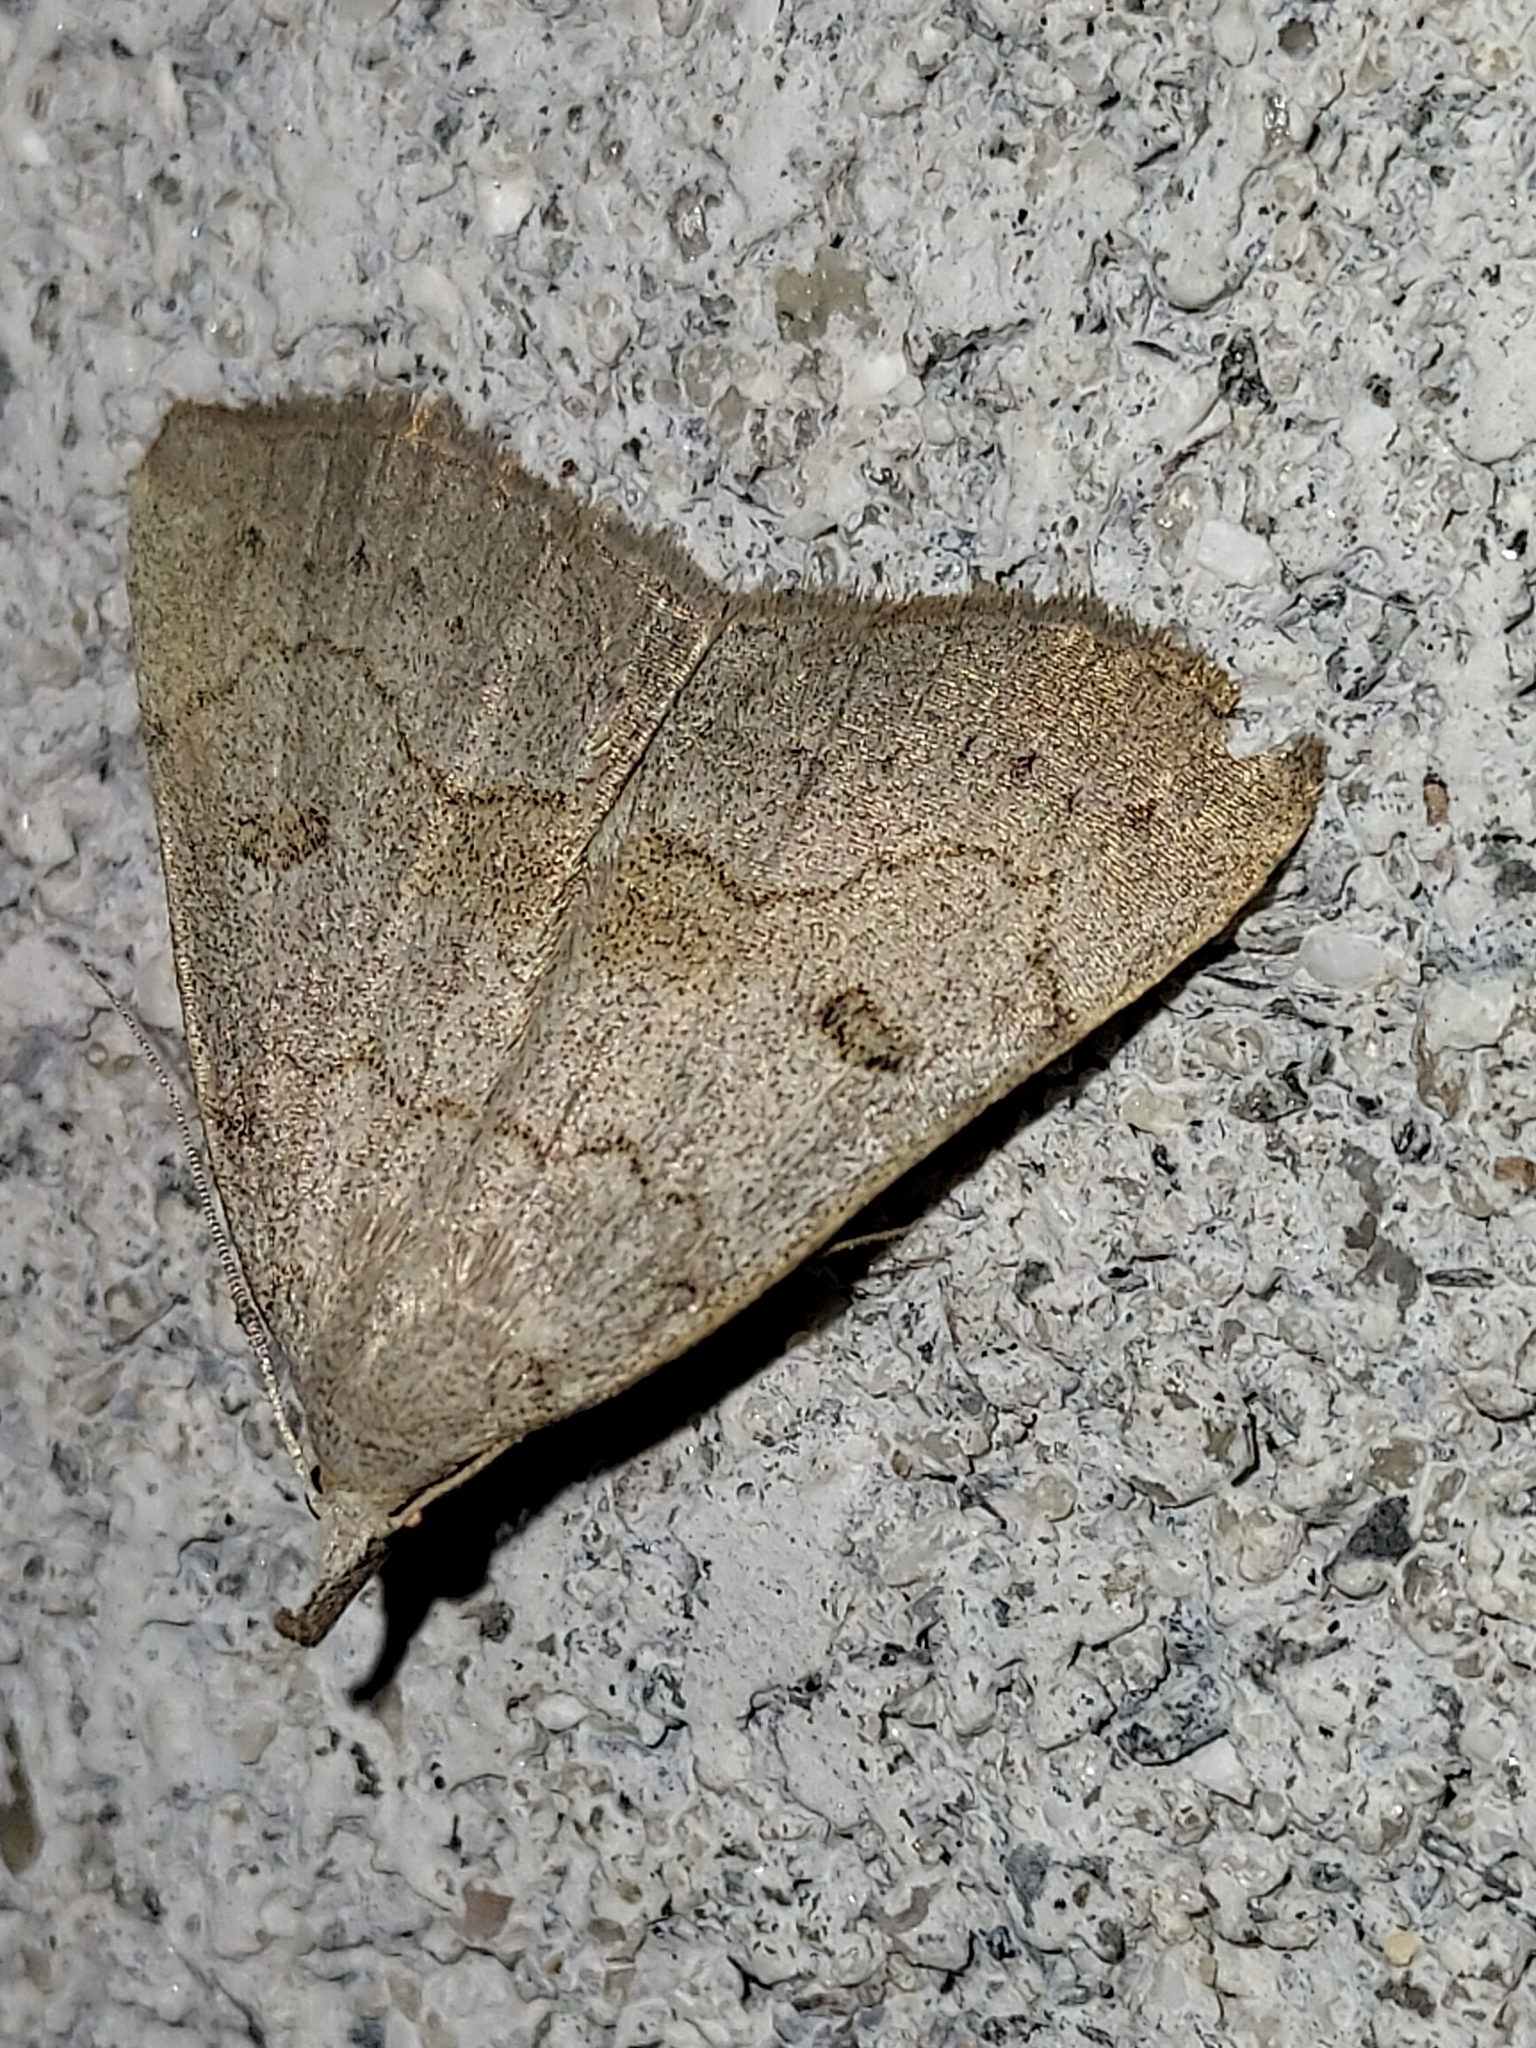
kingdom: Animalia
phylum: Arthropoda
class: Insecta
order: Lepidoptera
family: Erebidae
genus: Macrochilo
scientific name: Macrochilo morbidalis
